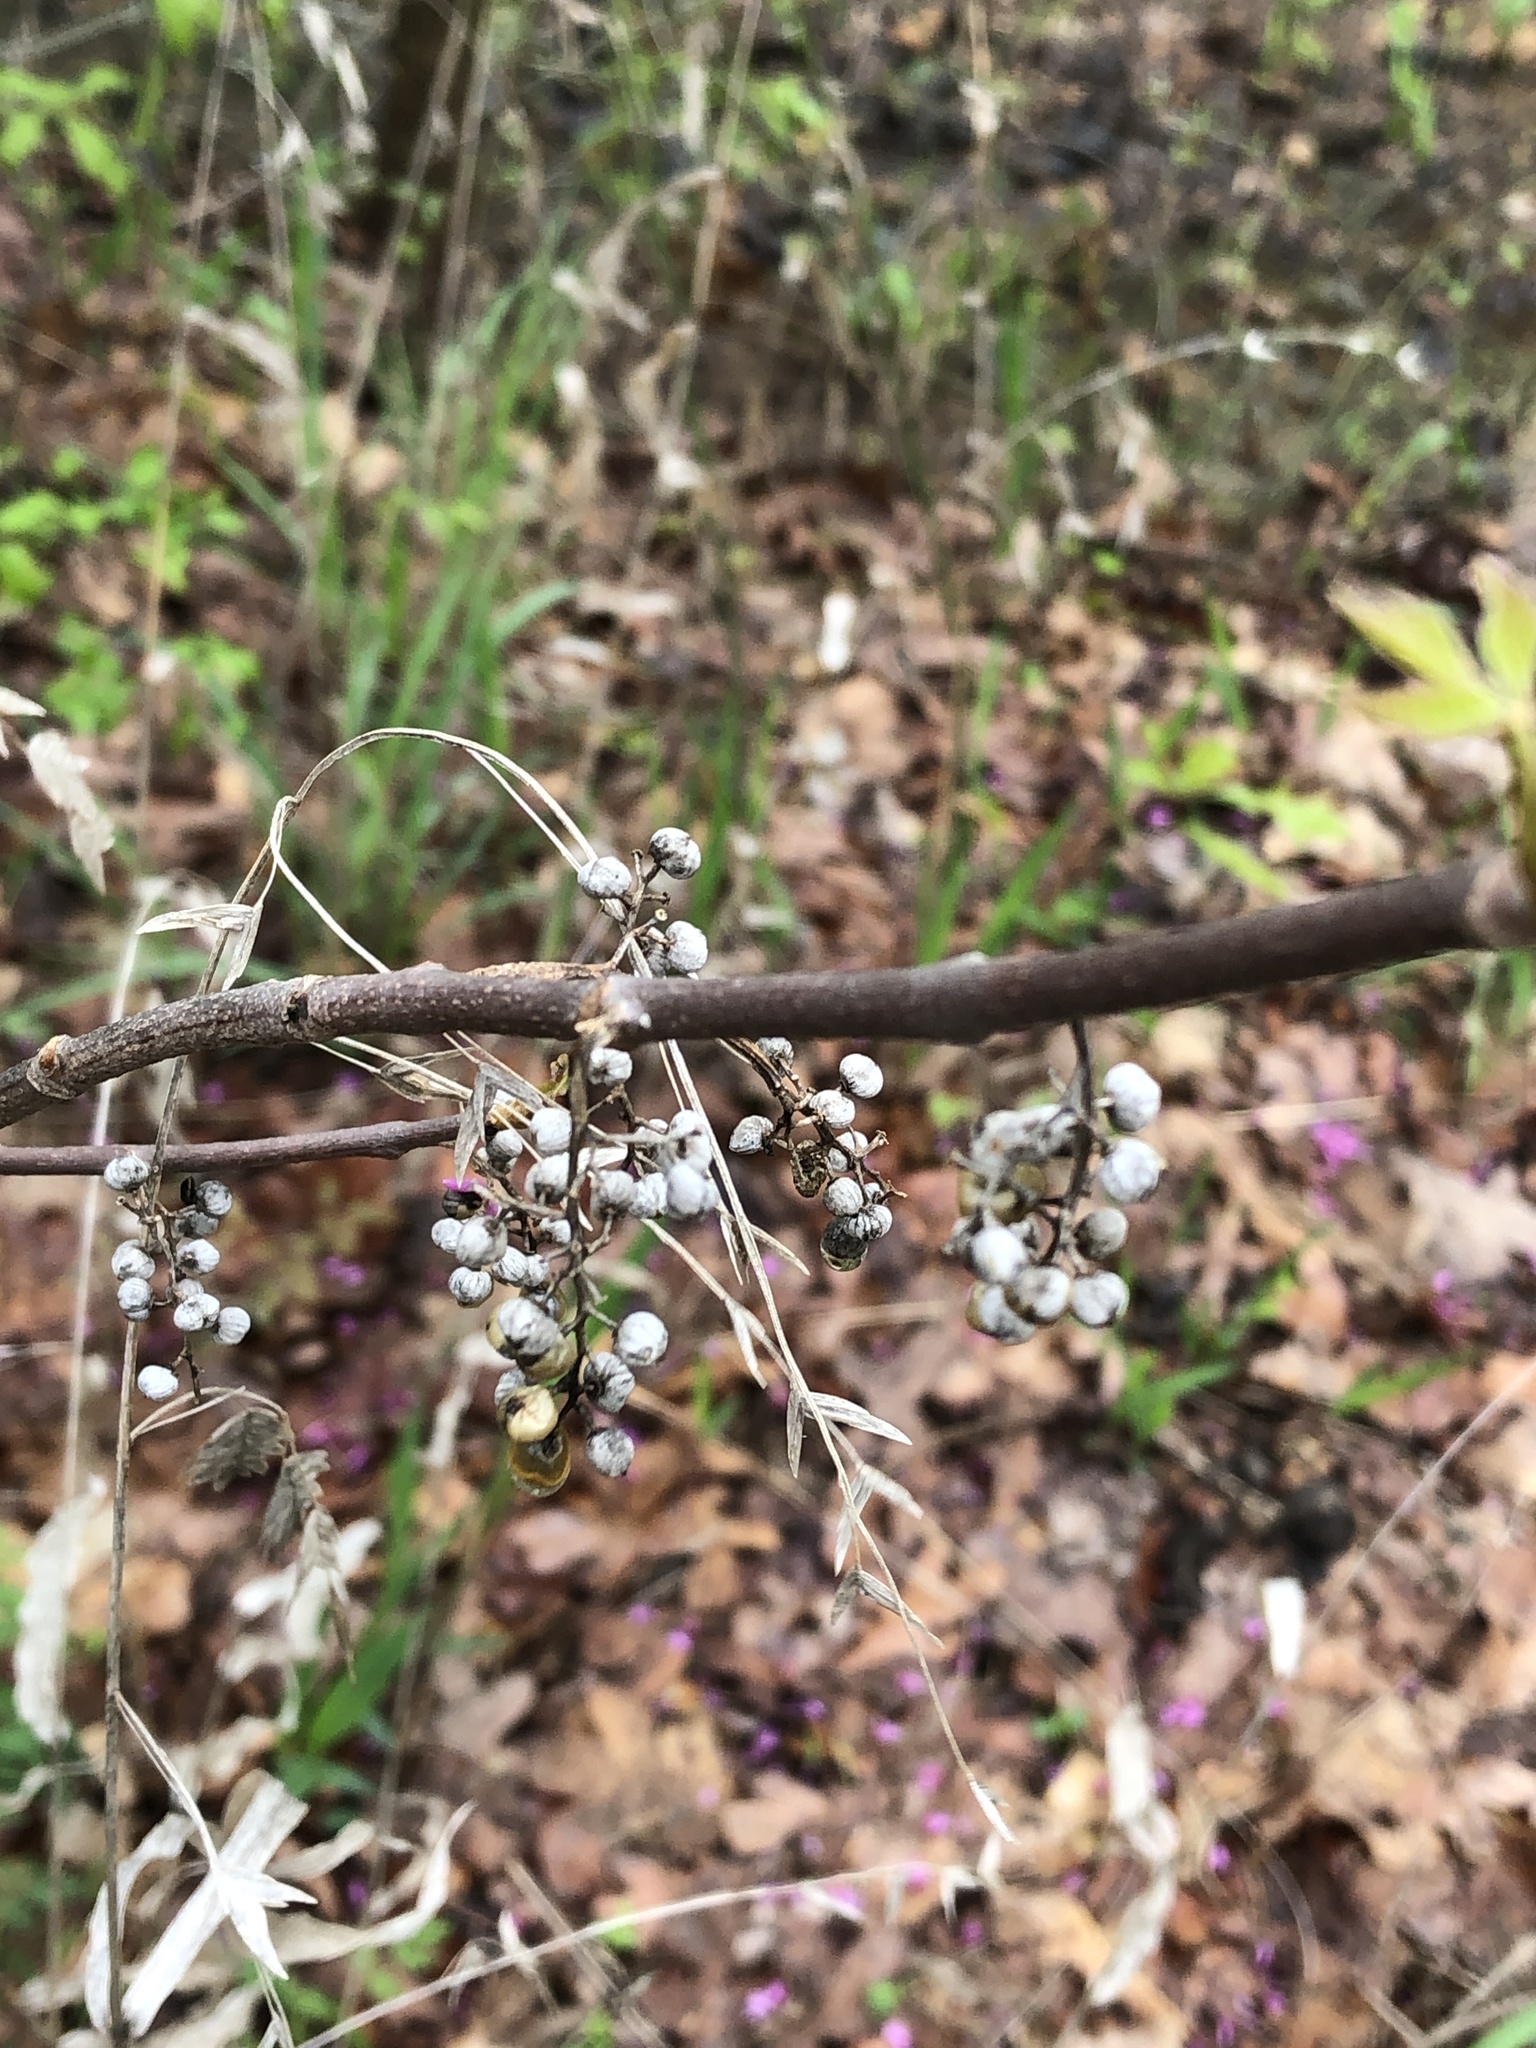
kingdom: Plantae
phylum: Tracheophyta
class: Magnoliopsida
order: Sapindales
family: Anacardiaceae
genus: Toxicodendron
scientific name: Toxicodendron radicans
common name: Poison ivy
